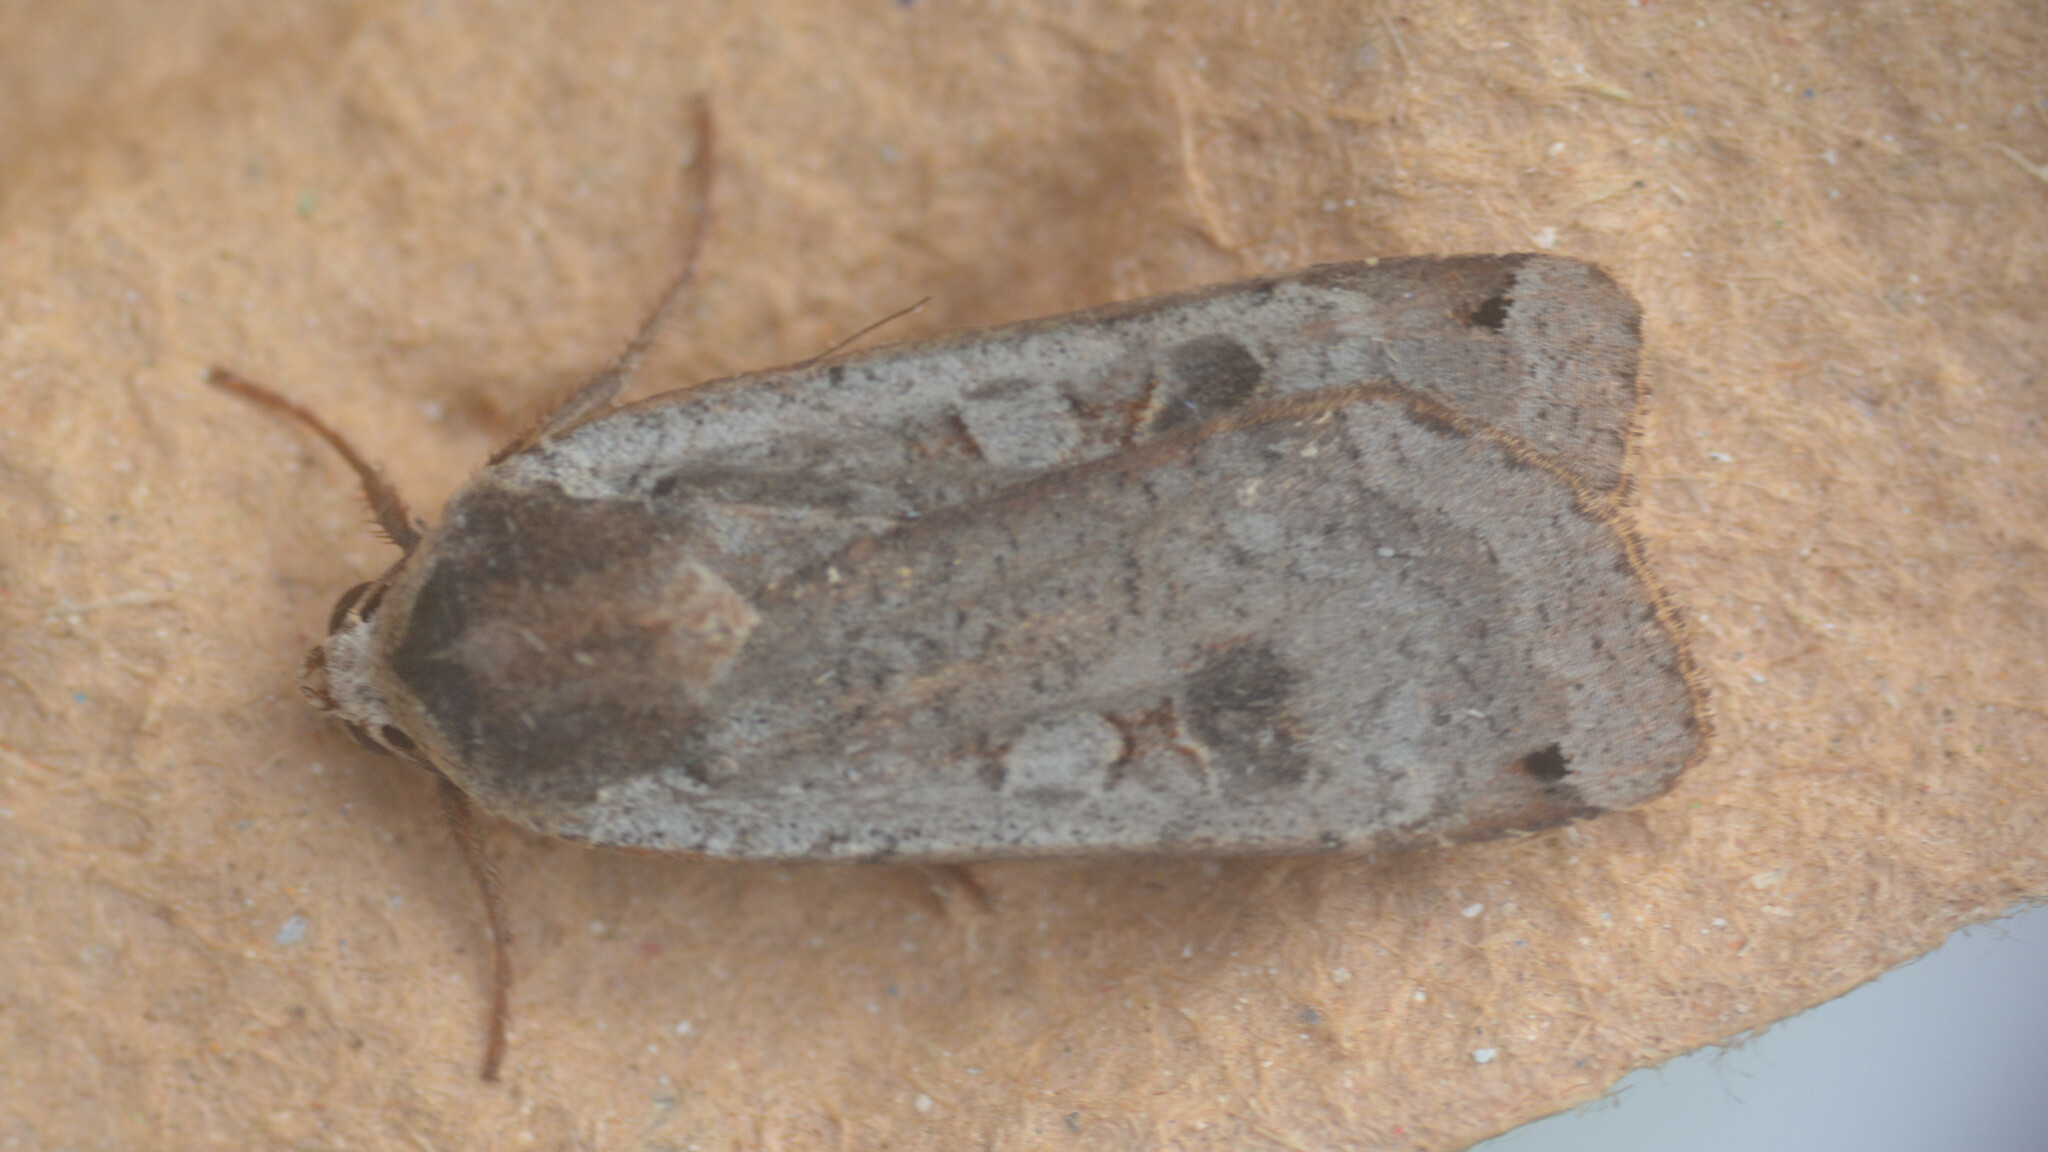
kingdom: Animalia
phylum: Arthropoda
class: Insecta
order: Lepidoptera
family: Noctuidae
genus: Noctua
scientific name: Noctua pronuba
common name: Large yellow underwing
